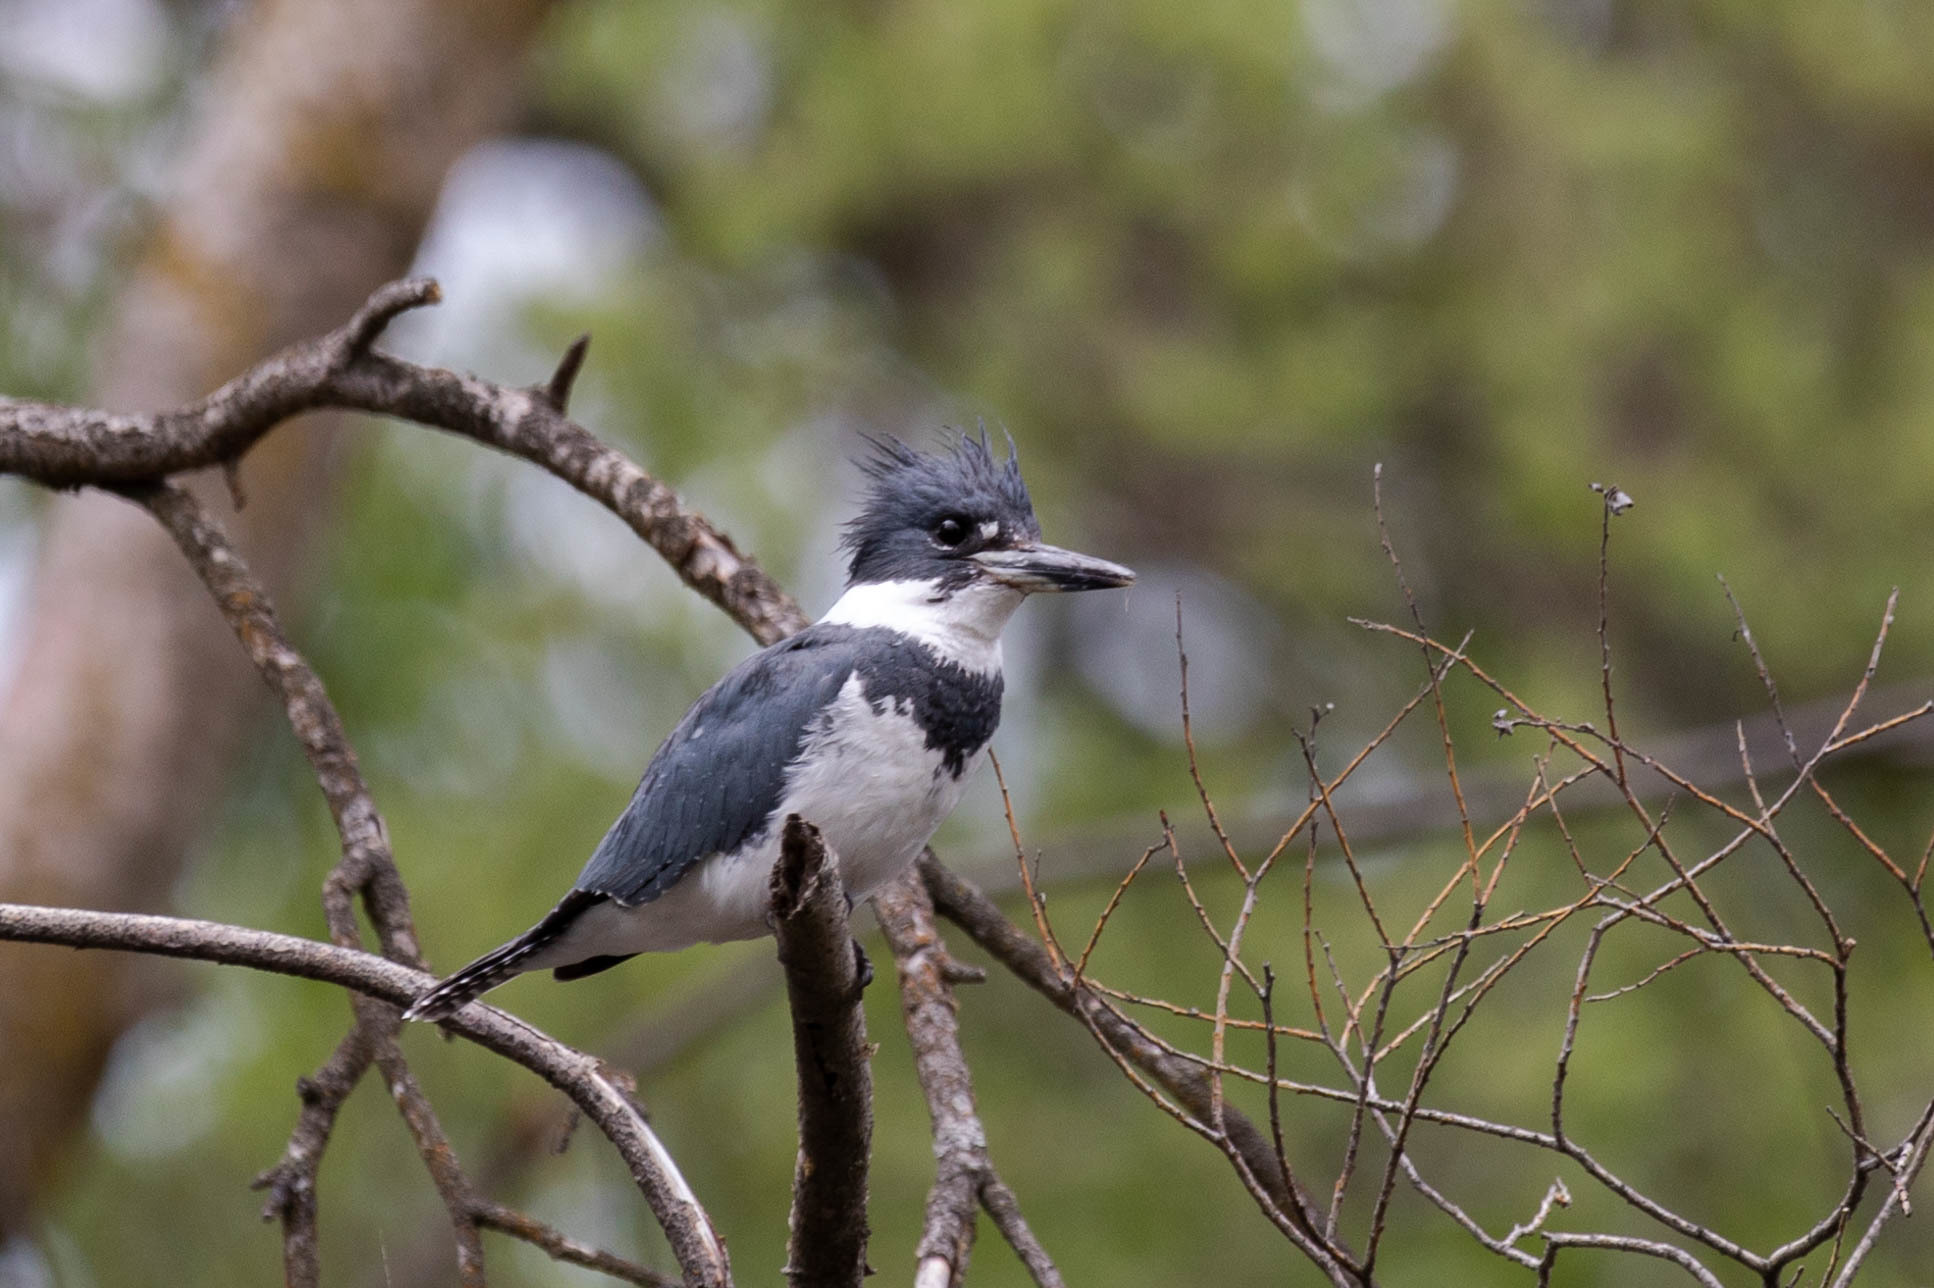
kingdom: Animalia
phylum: Chordata
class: Aves
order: Coraciiformes
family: Alcedinidae
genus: Megaceryle
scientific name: Megaceryle alcyon
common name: Belted kingfisher
